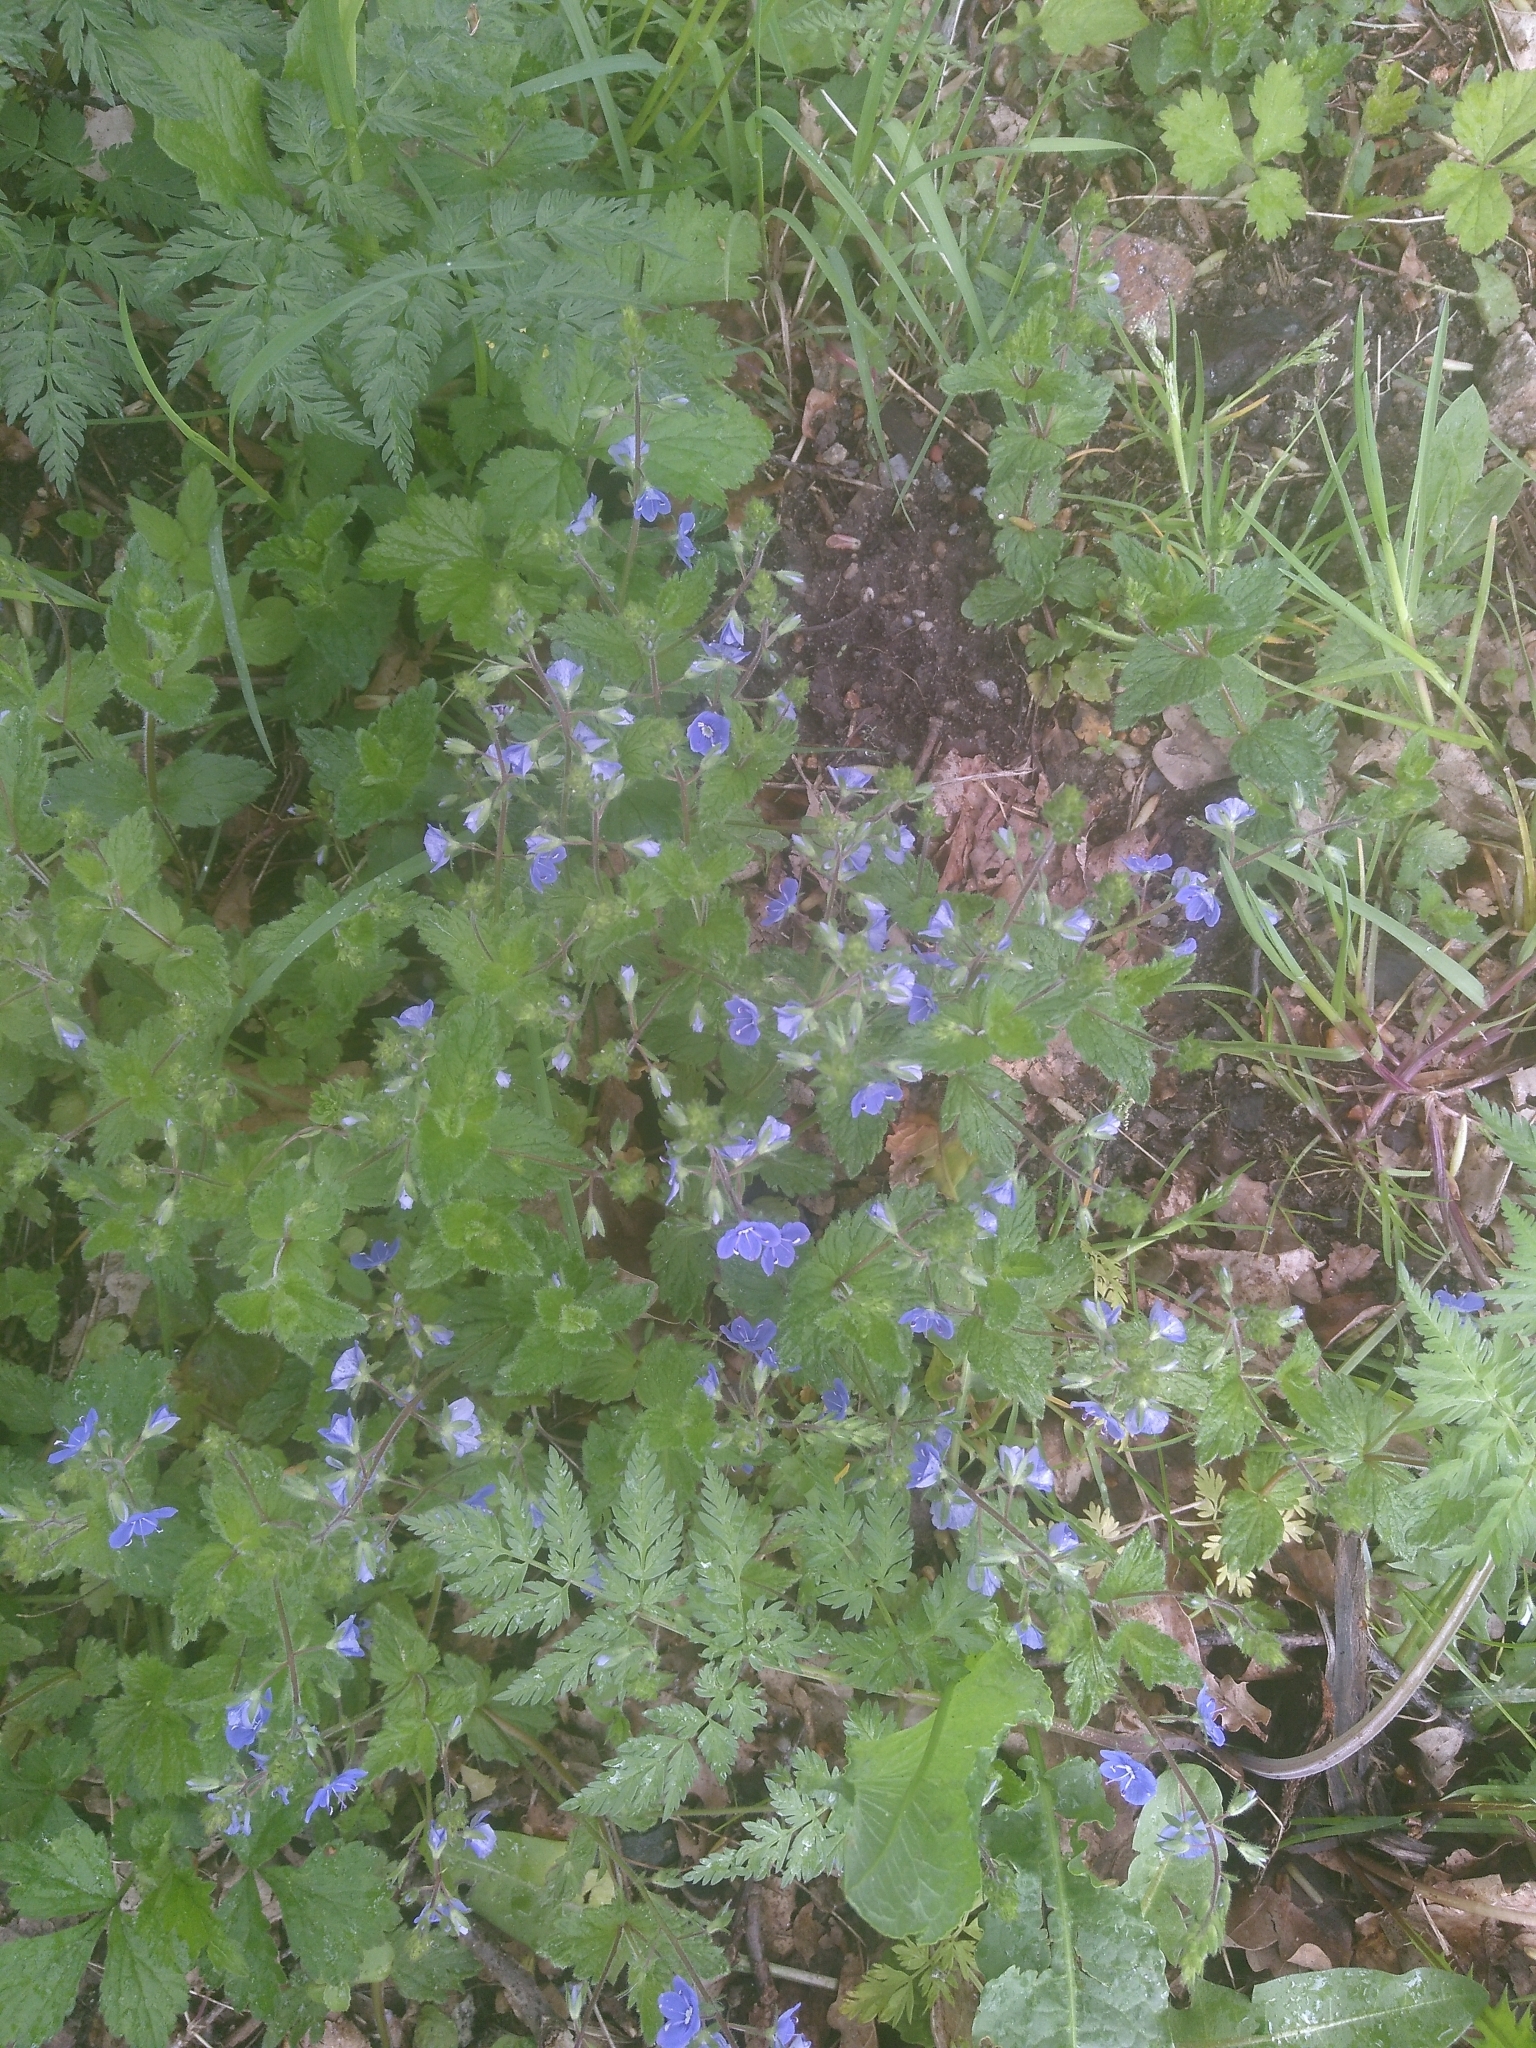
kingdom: Plantae
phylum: Tracheophyta
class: Magnoliopsida
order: Lamiales
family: Plantaginaceae
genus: Veronica
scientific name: Veronica chamaedrys
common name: Germander speedwell
